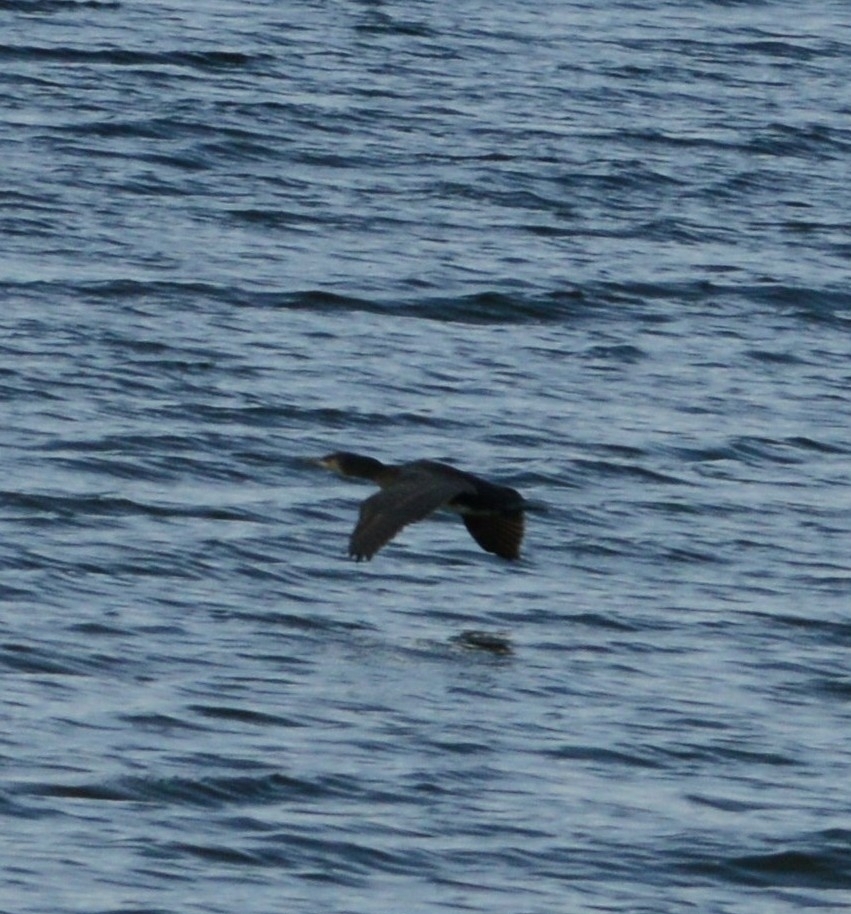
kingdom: Animalia
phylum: Chordata
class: Aves
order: Suliformes
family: Phalacrocoracidae
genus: Phalacrocorax
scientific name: Phalacrocorax carbo
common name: Great cormorant
